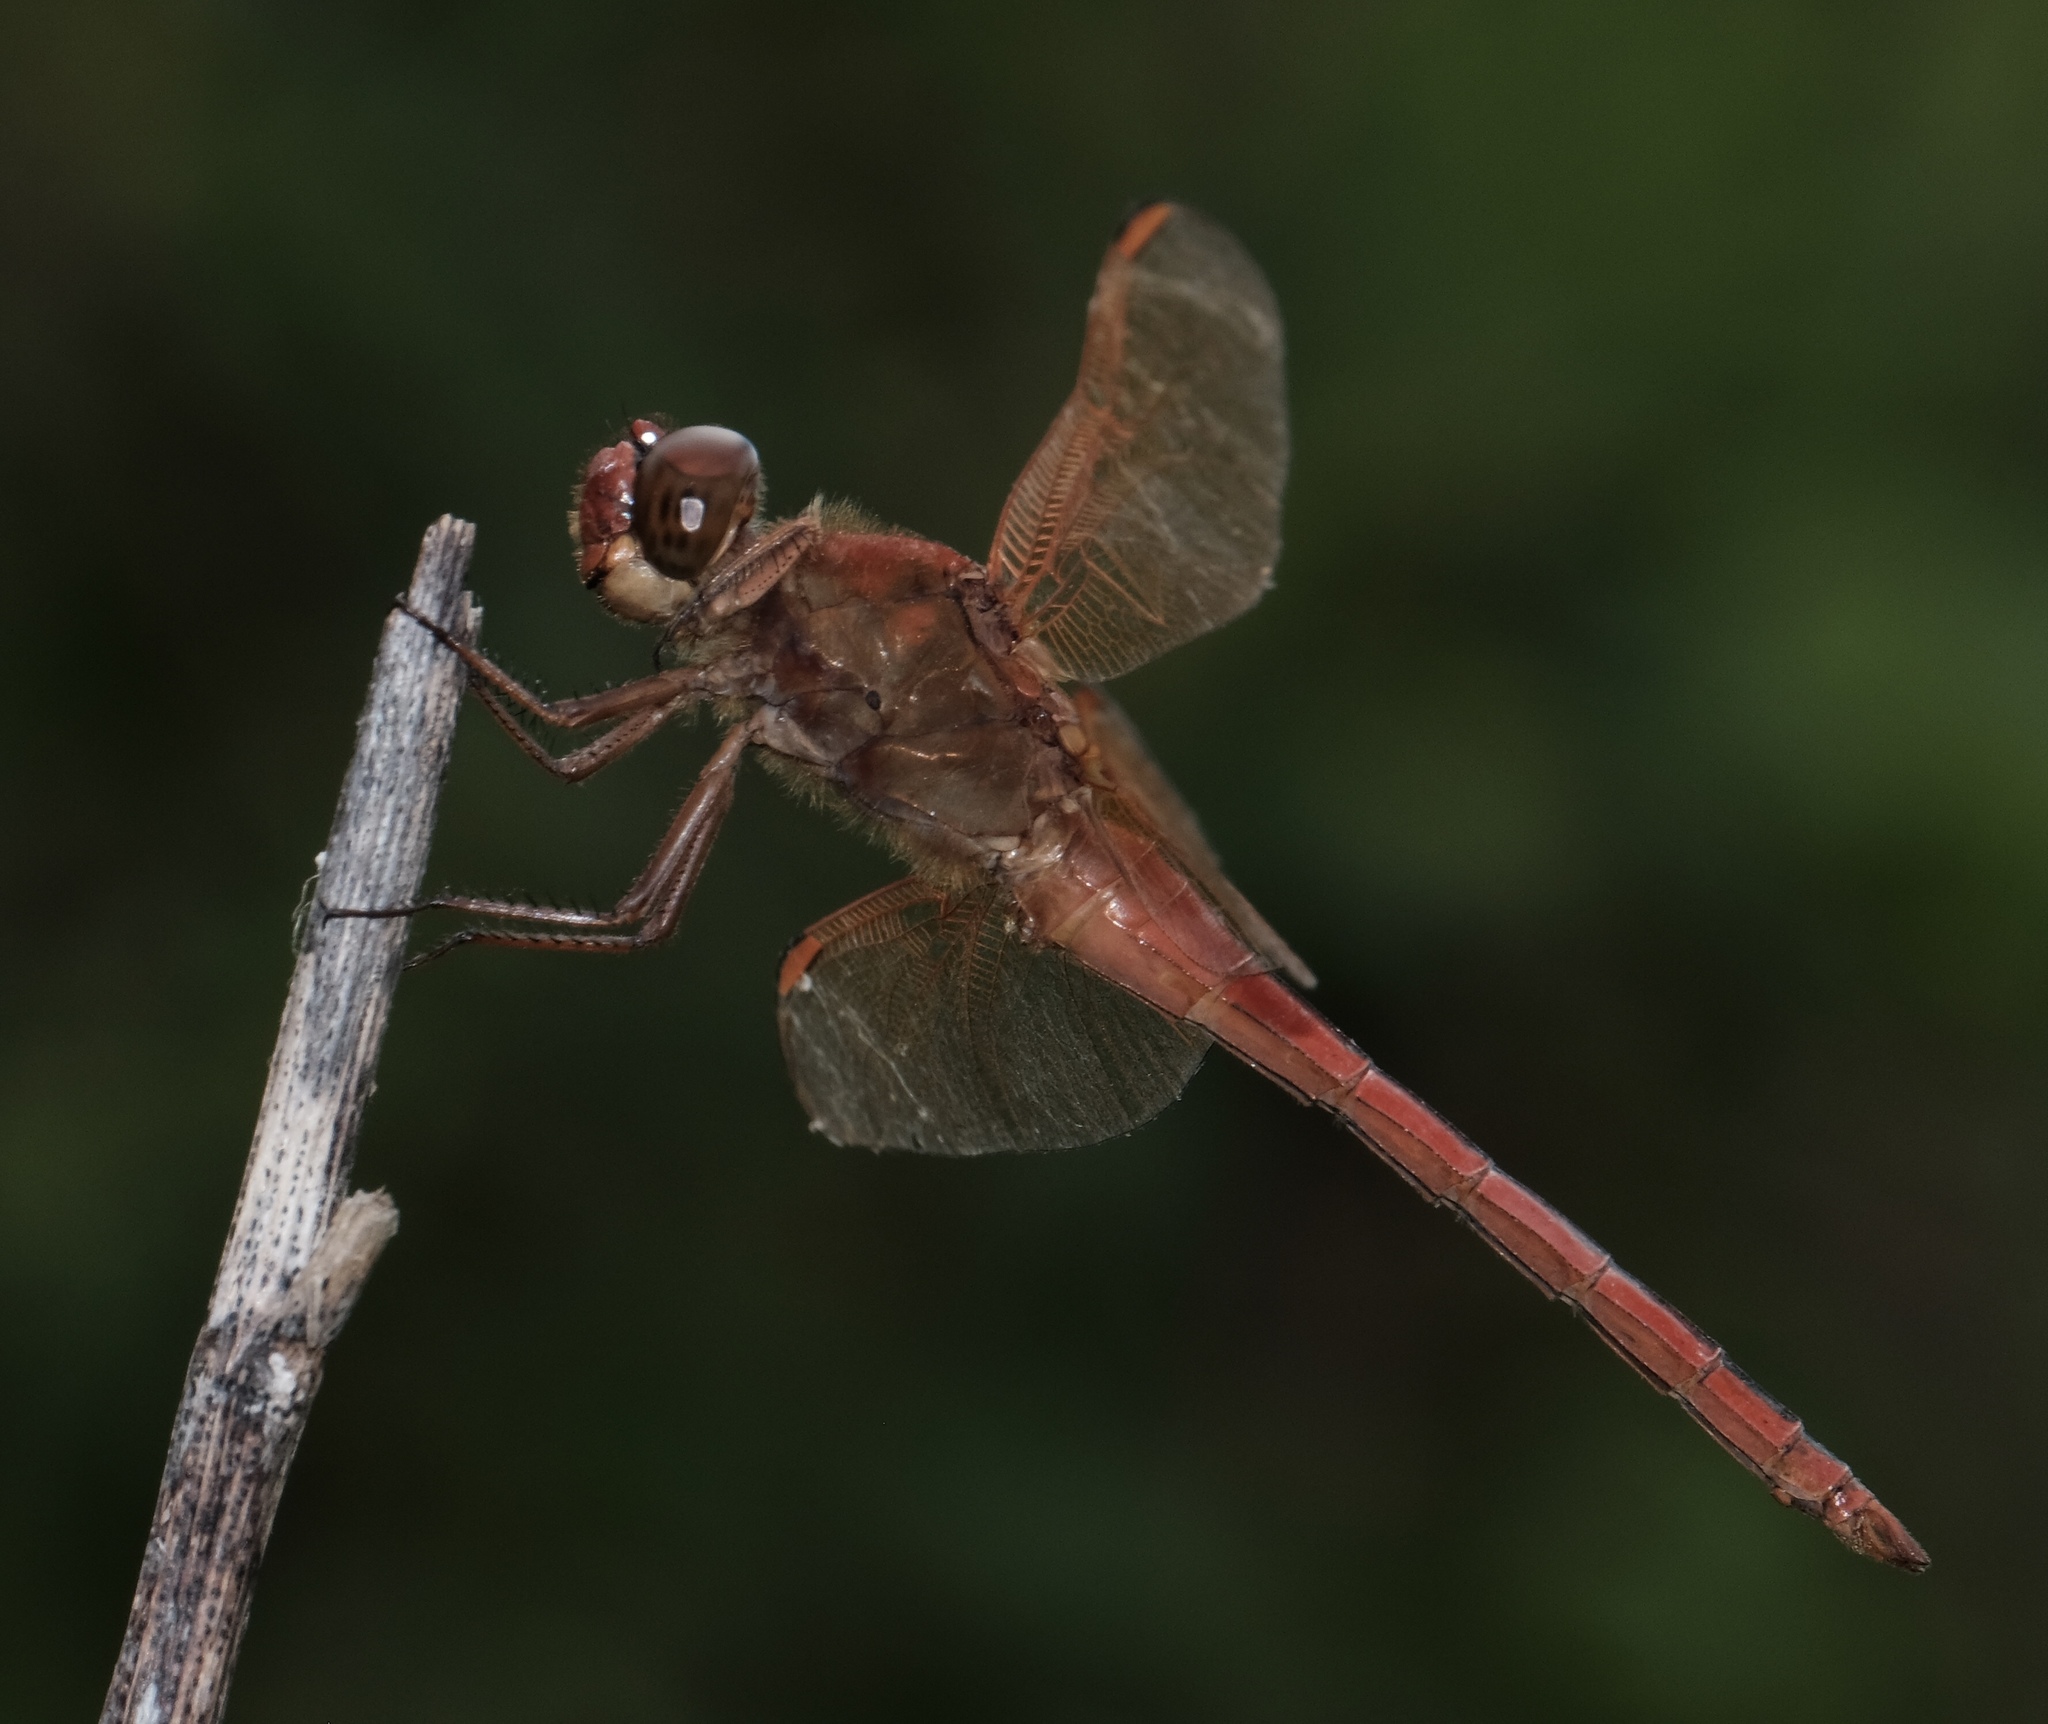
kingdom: Animalia
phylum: Arthropoda
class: Insecta
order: Odonata
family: Libellulidae
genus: Libellula
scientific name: Libellula needhami
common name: Needham's skimmer
